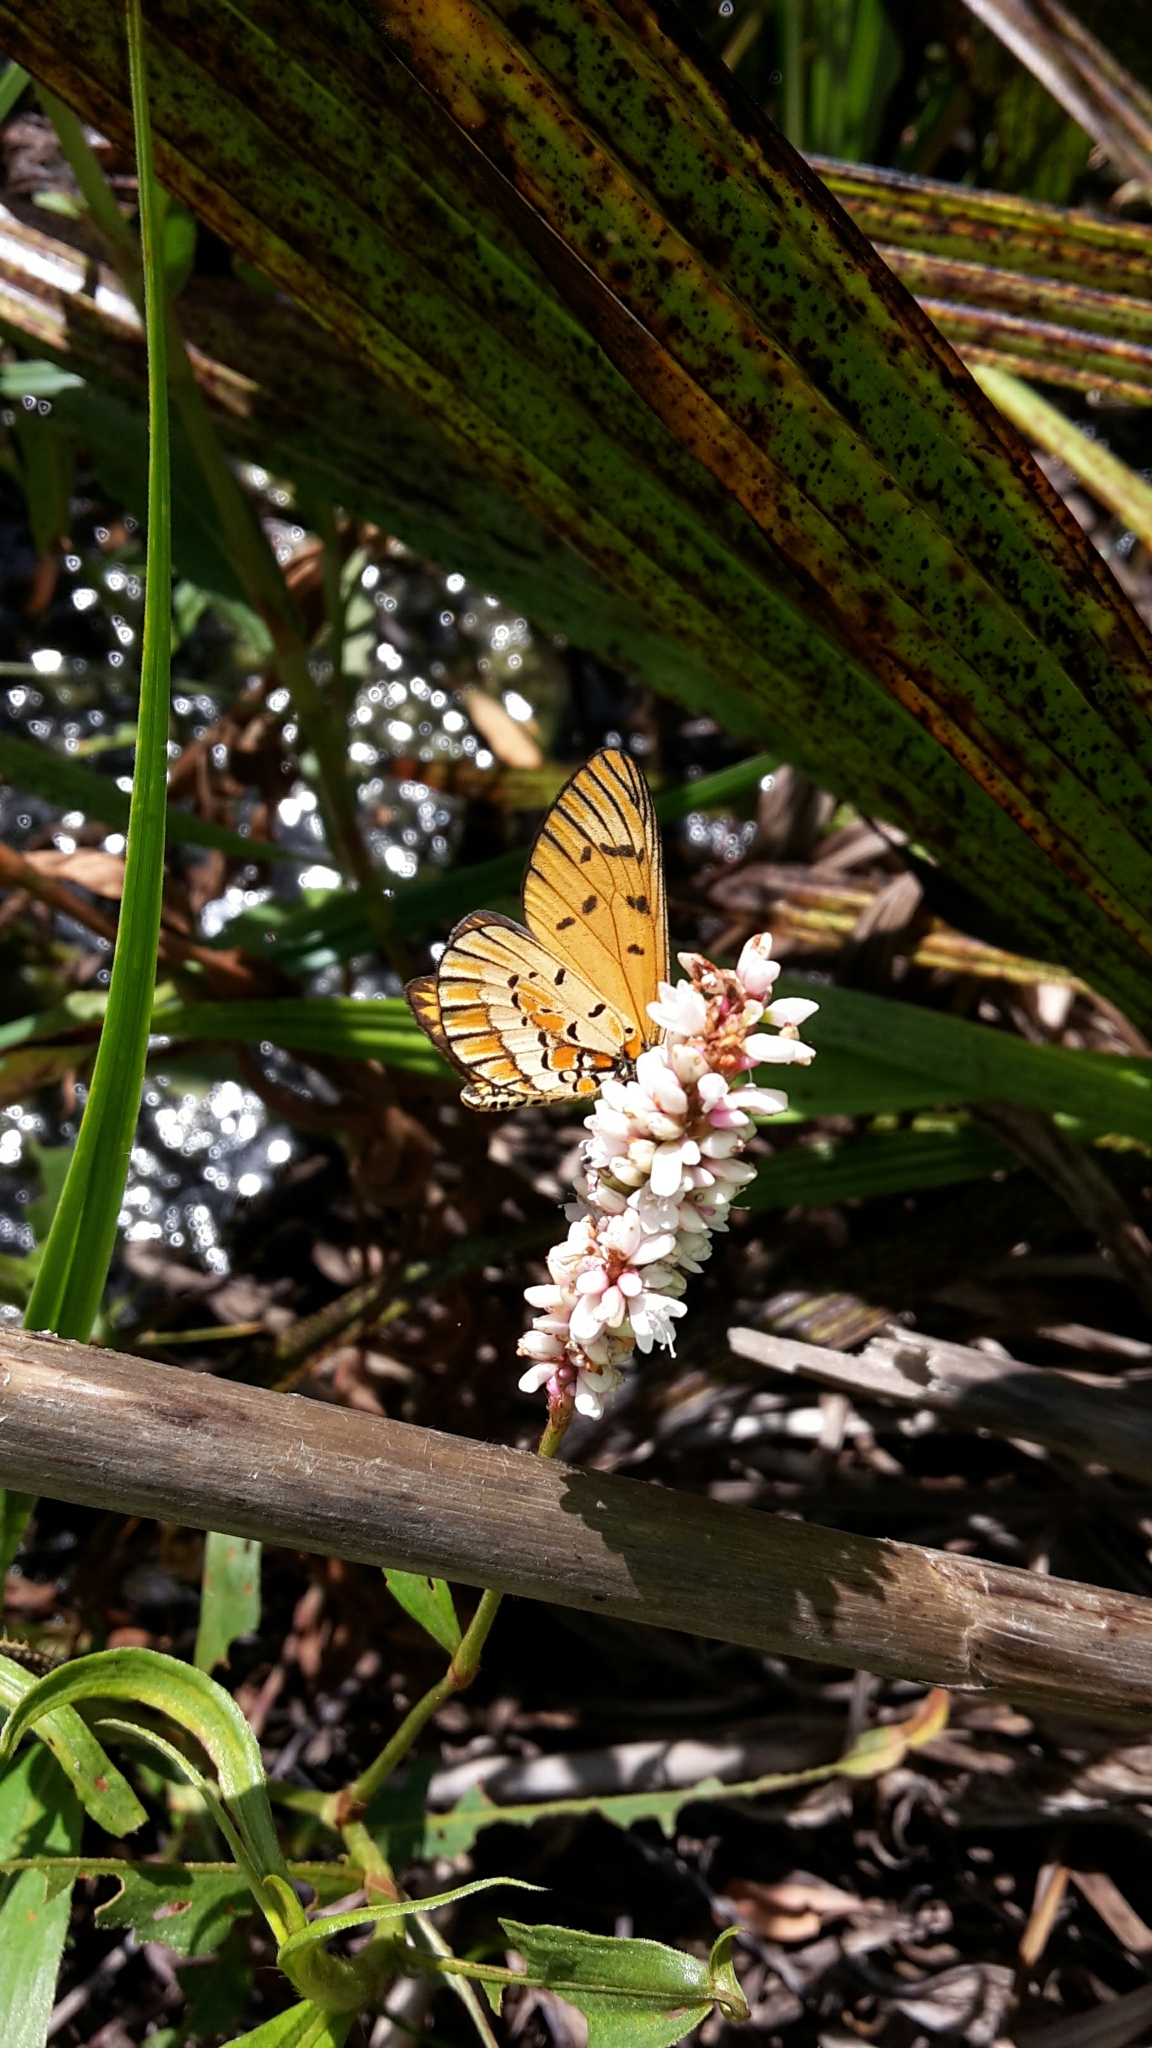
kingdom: Animalia
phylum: Arthropoda
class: Insecta
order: Lepidoptera
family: Nymphalidae
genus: Acraea
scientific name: Acraea rahira
